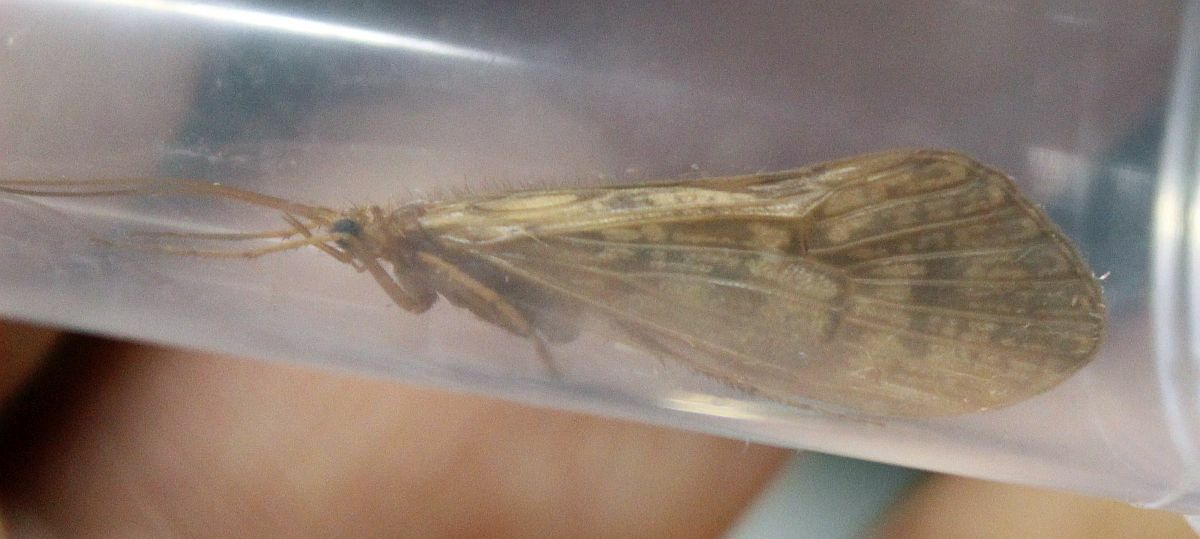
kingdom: Animalia
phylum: Arthropoda
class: Insecta
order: Trichoptera
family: Limnephilidae
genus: Halesus
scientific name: Halesus digitatus
